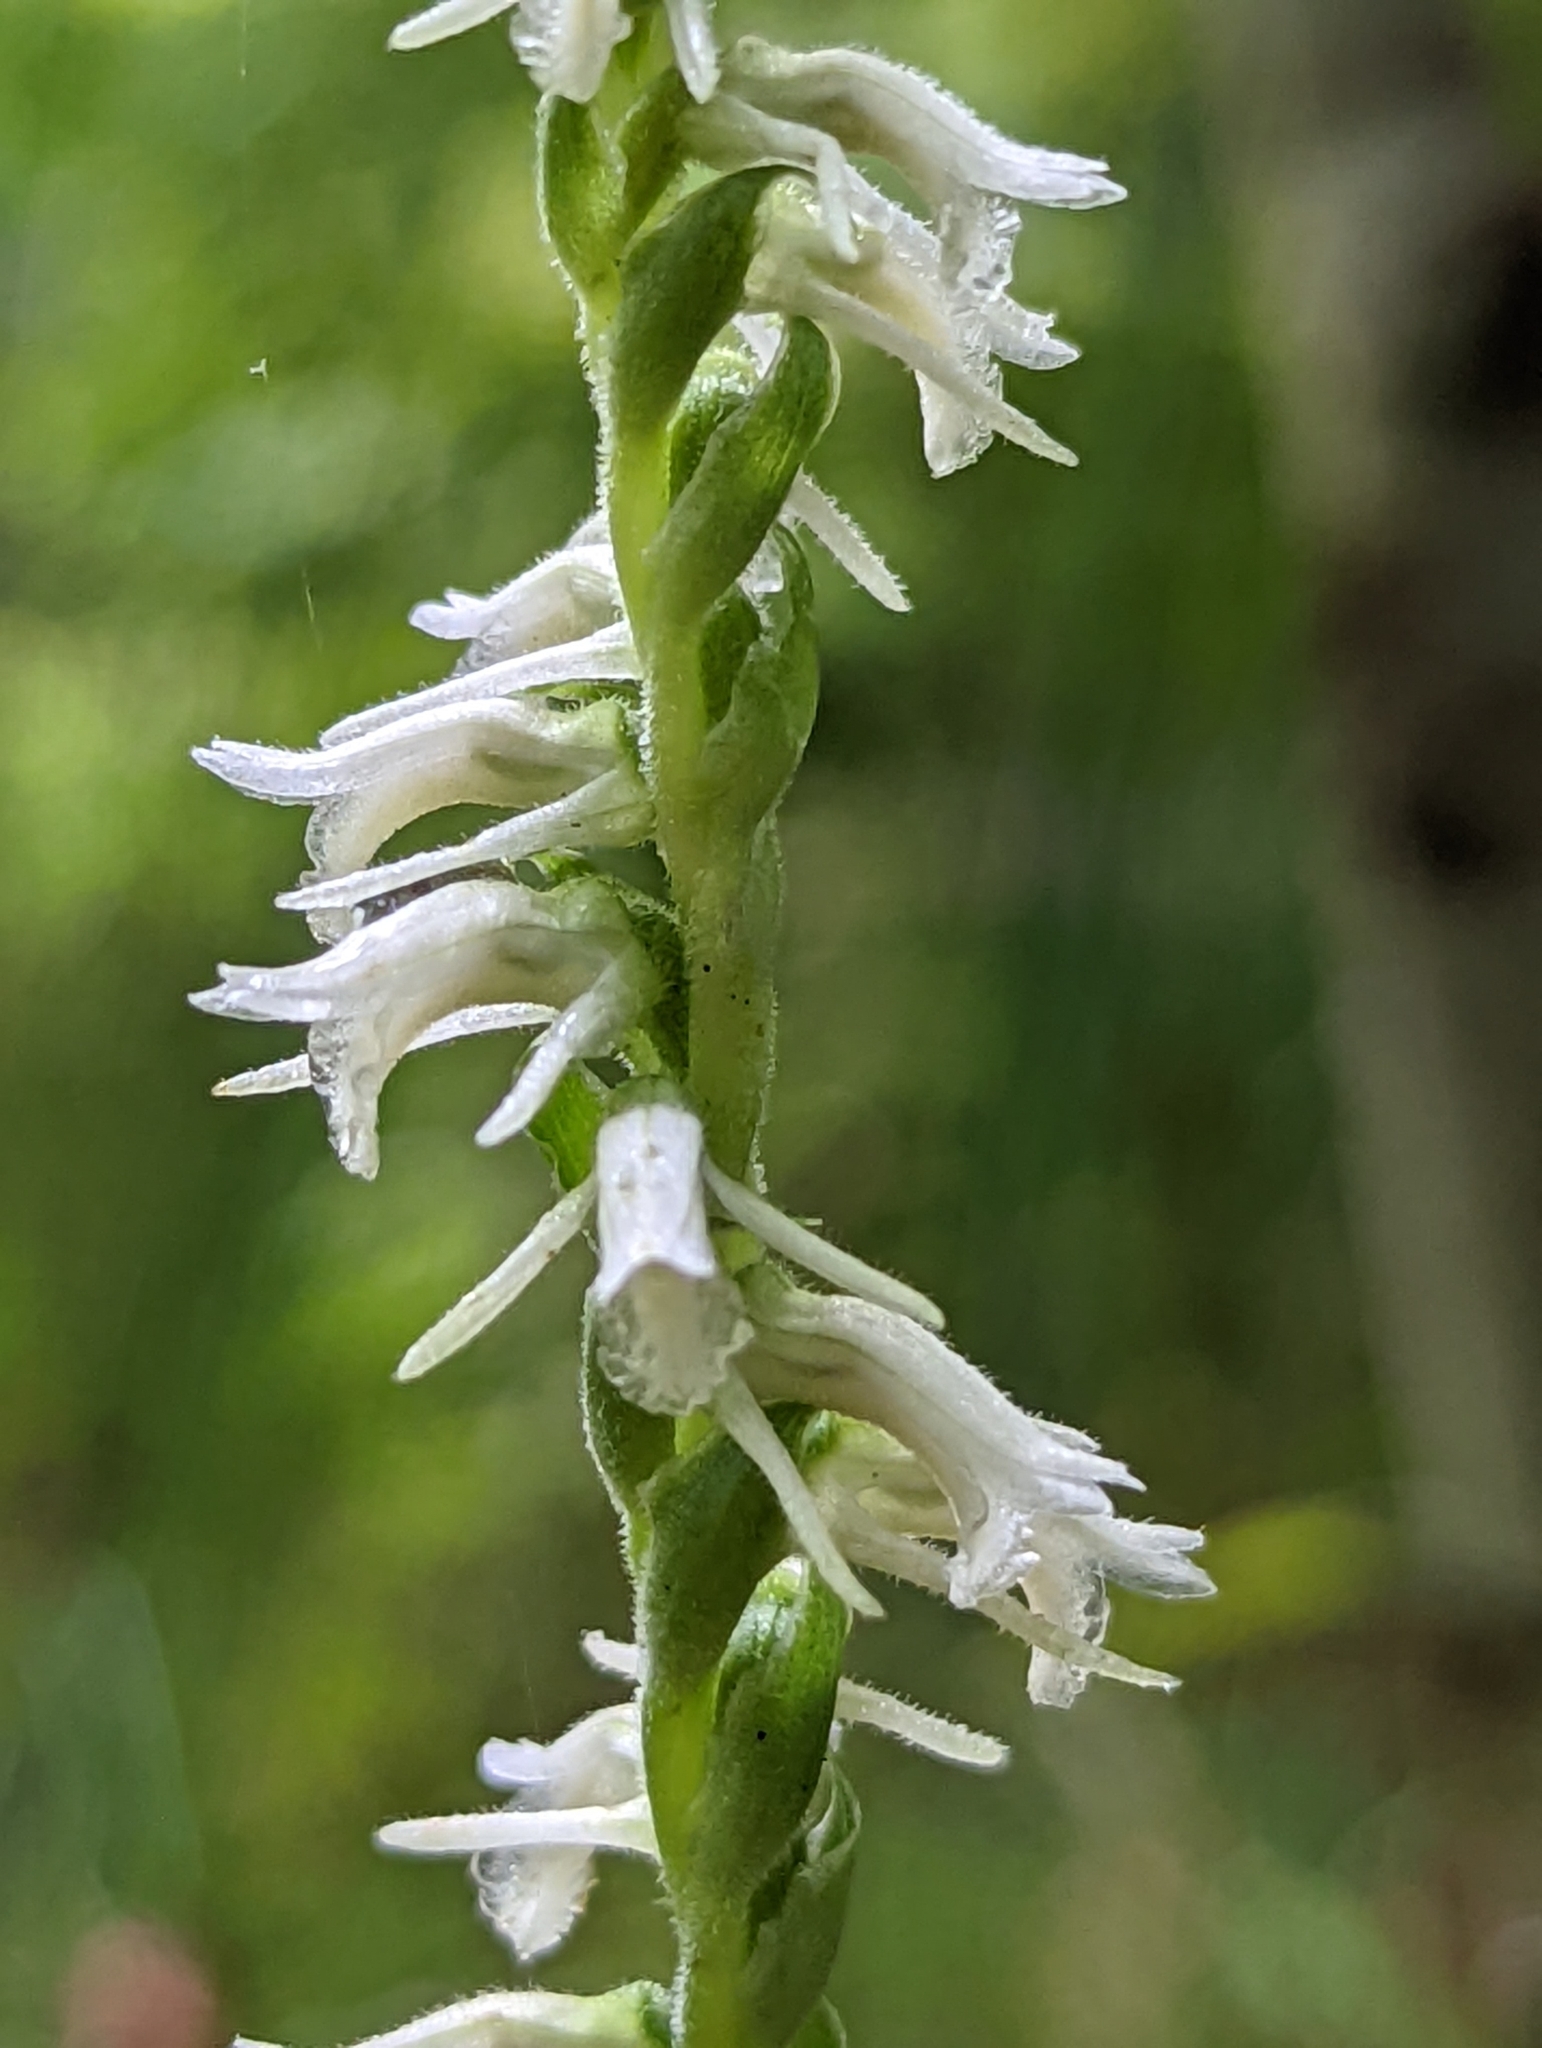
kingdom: Plantae
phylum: Tracheophyta
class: Liliopsida
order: Asparagales
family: Orchidaceae
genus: Spiranthes
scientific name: Spiranthes vernalis
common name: Spring ladies'-tresses
